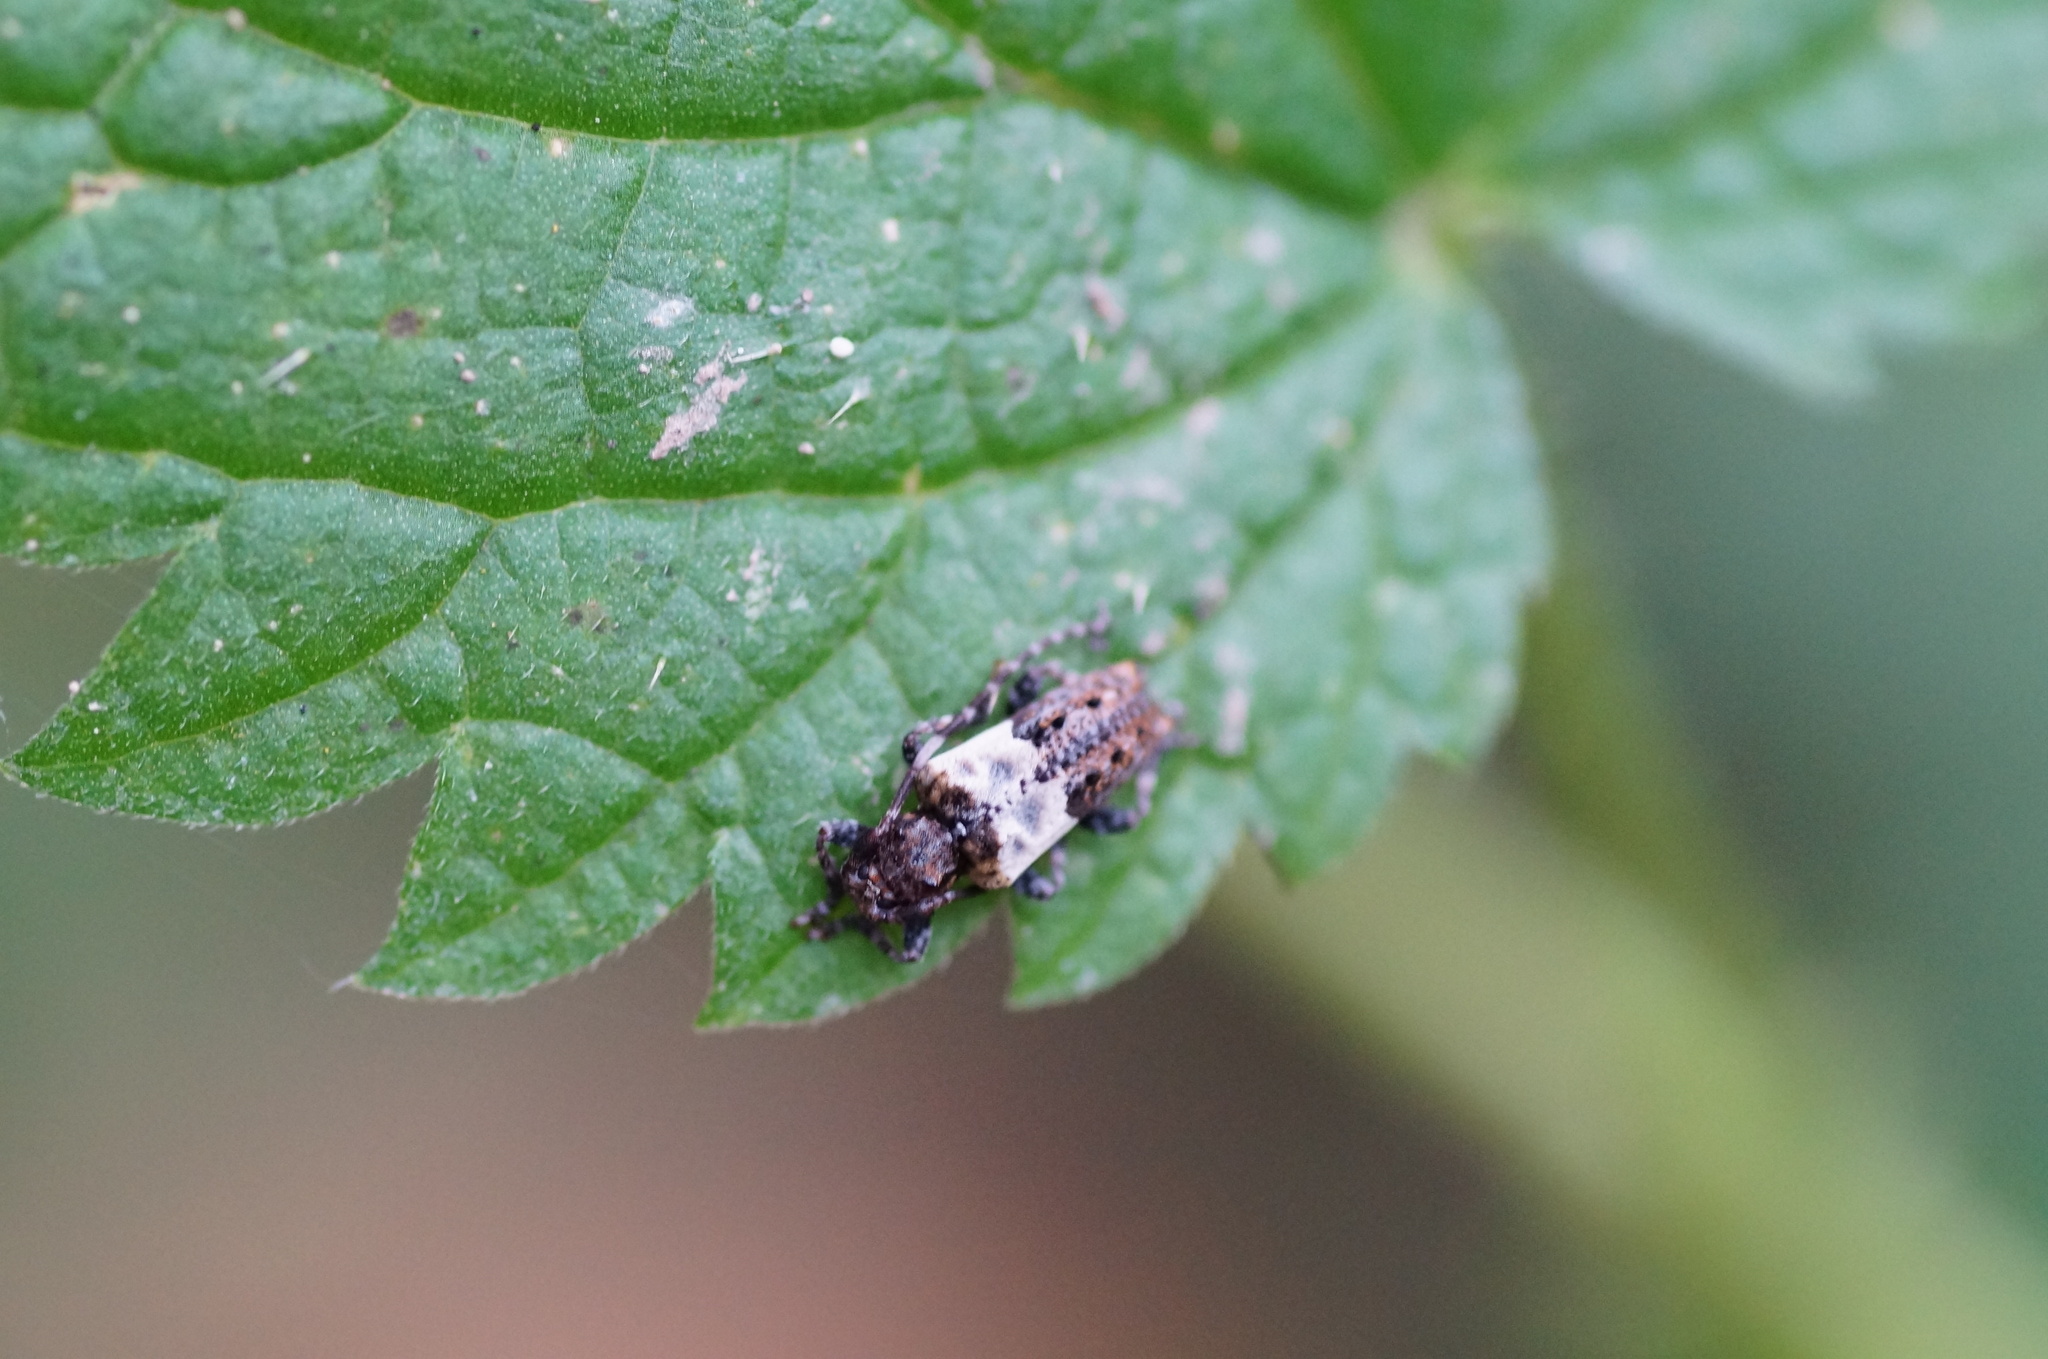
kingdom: Animalia
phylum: Arthropoda
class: Insecta
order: Coleoptera
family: Cerambycidae
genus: Pogonocherus
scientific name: Pogonocherus hispidulus
